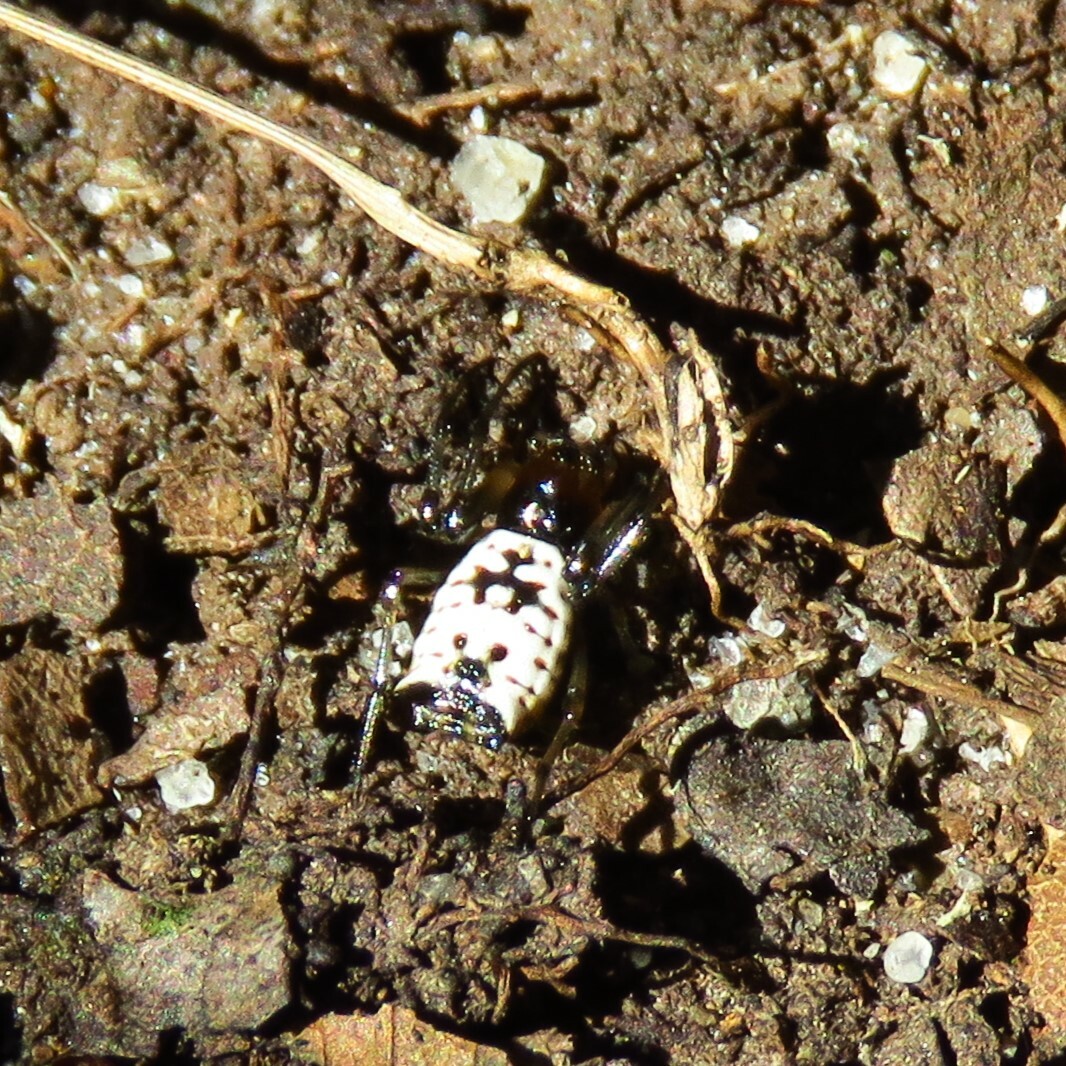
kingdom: Animalia
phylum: Arthropoda
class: Arachnida
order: Araneae
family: Araneidae
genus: Micrathena
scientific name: Micrathena mitrata
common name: Orb weavers
